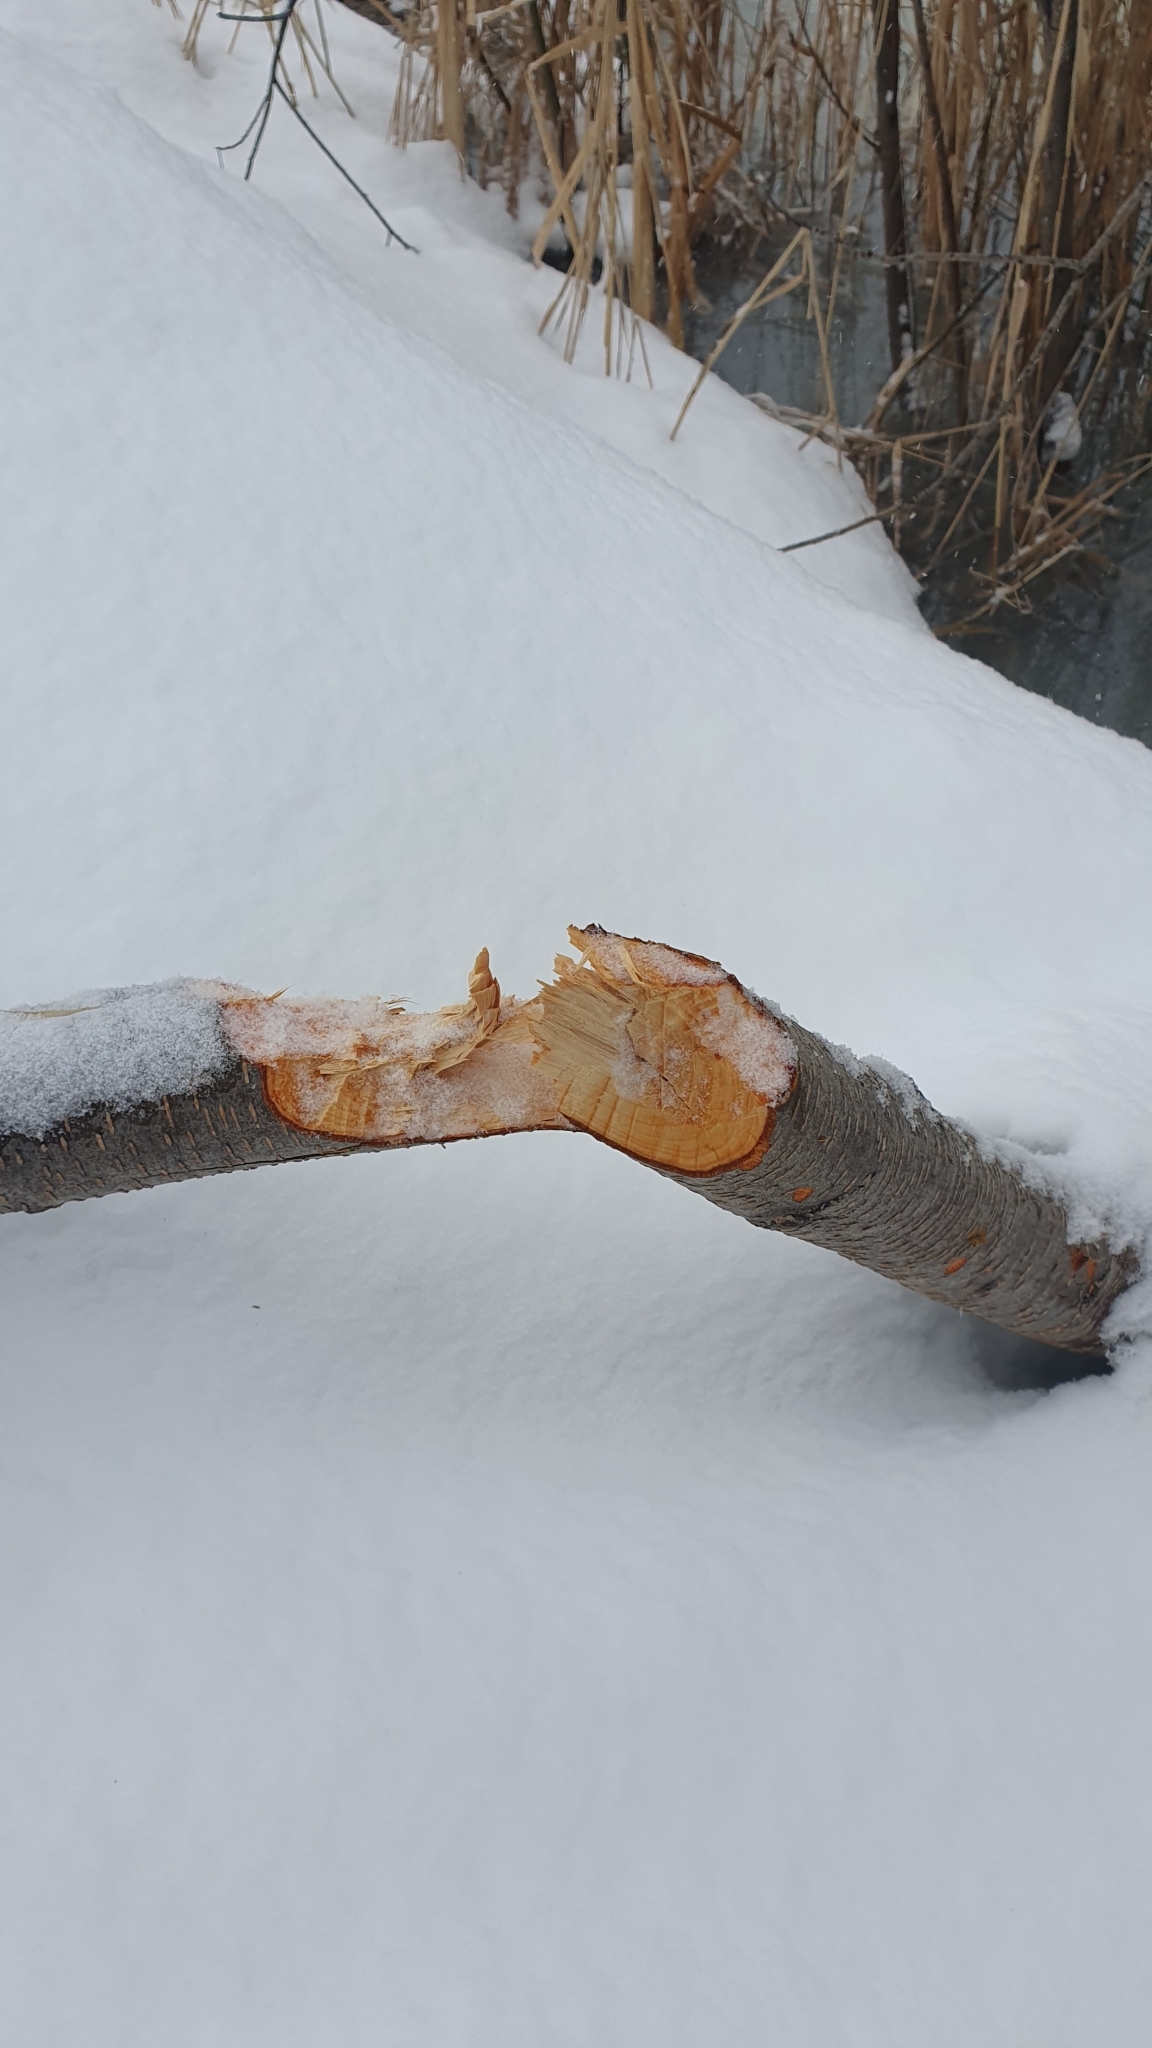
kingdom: Animalia
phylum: Chordata
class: Mammalia
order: Rodentia
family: Castoridae
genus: Castor
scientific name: Castor fiber
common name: Eurasian beaver
